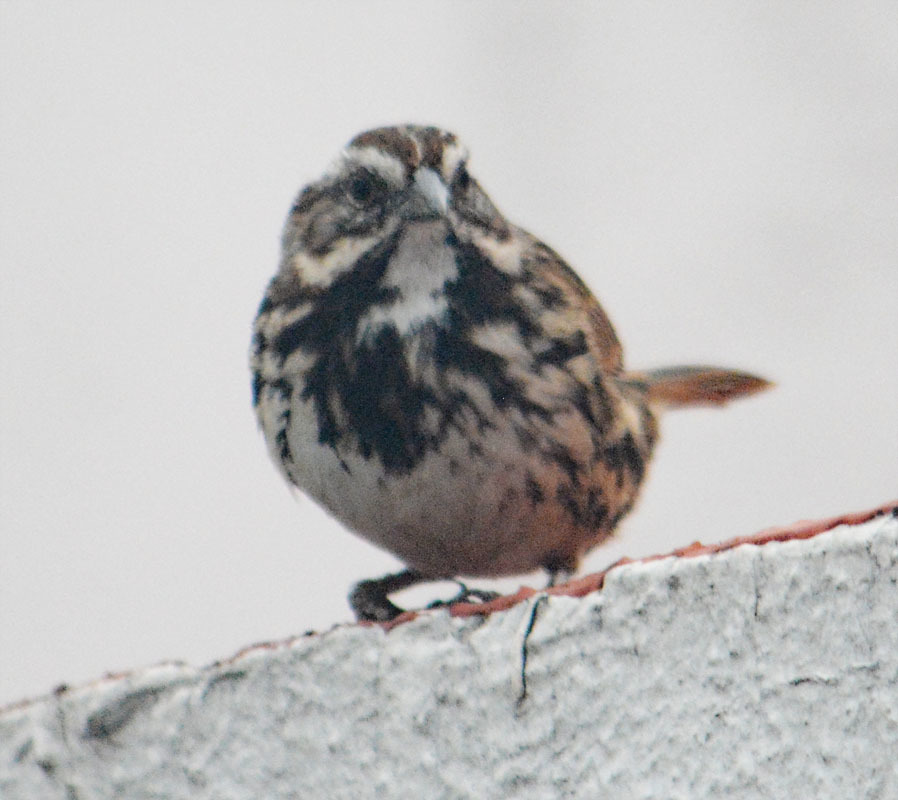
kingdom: Animalia
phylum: Chordata
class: Aves
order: Passeriformes
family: Passerellidae
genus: Melospiza
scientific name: Melospiza melodia
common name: Song sparrow
